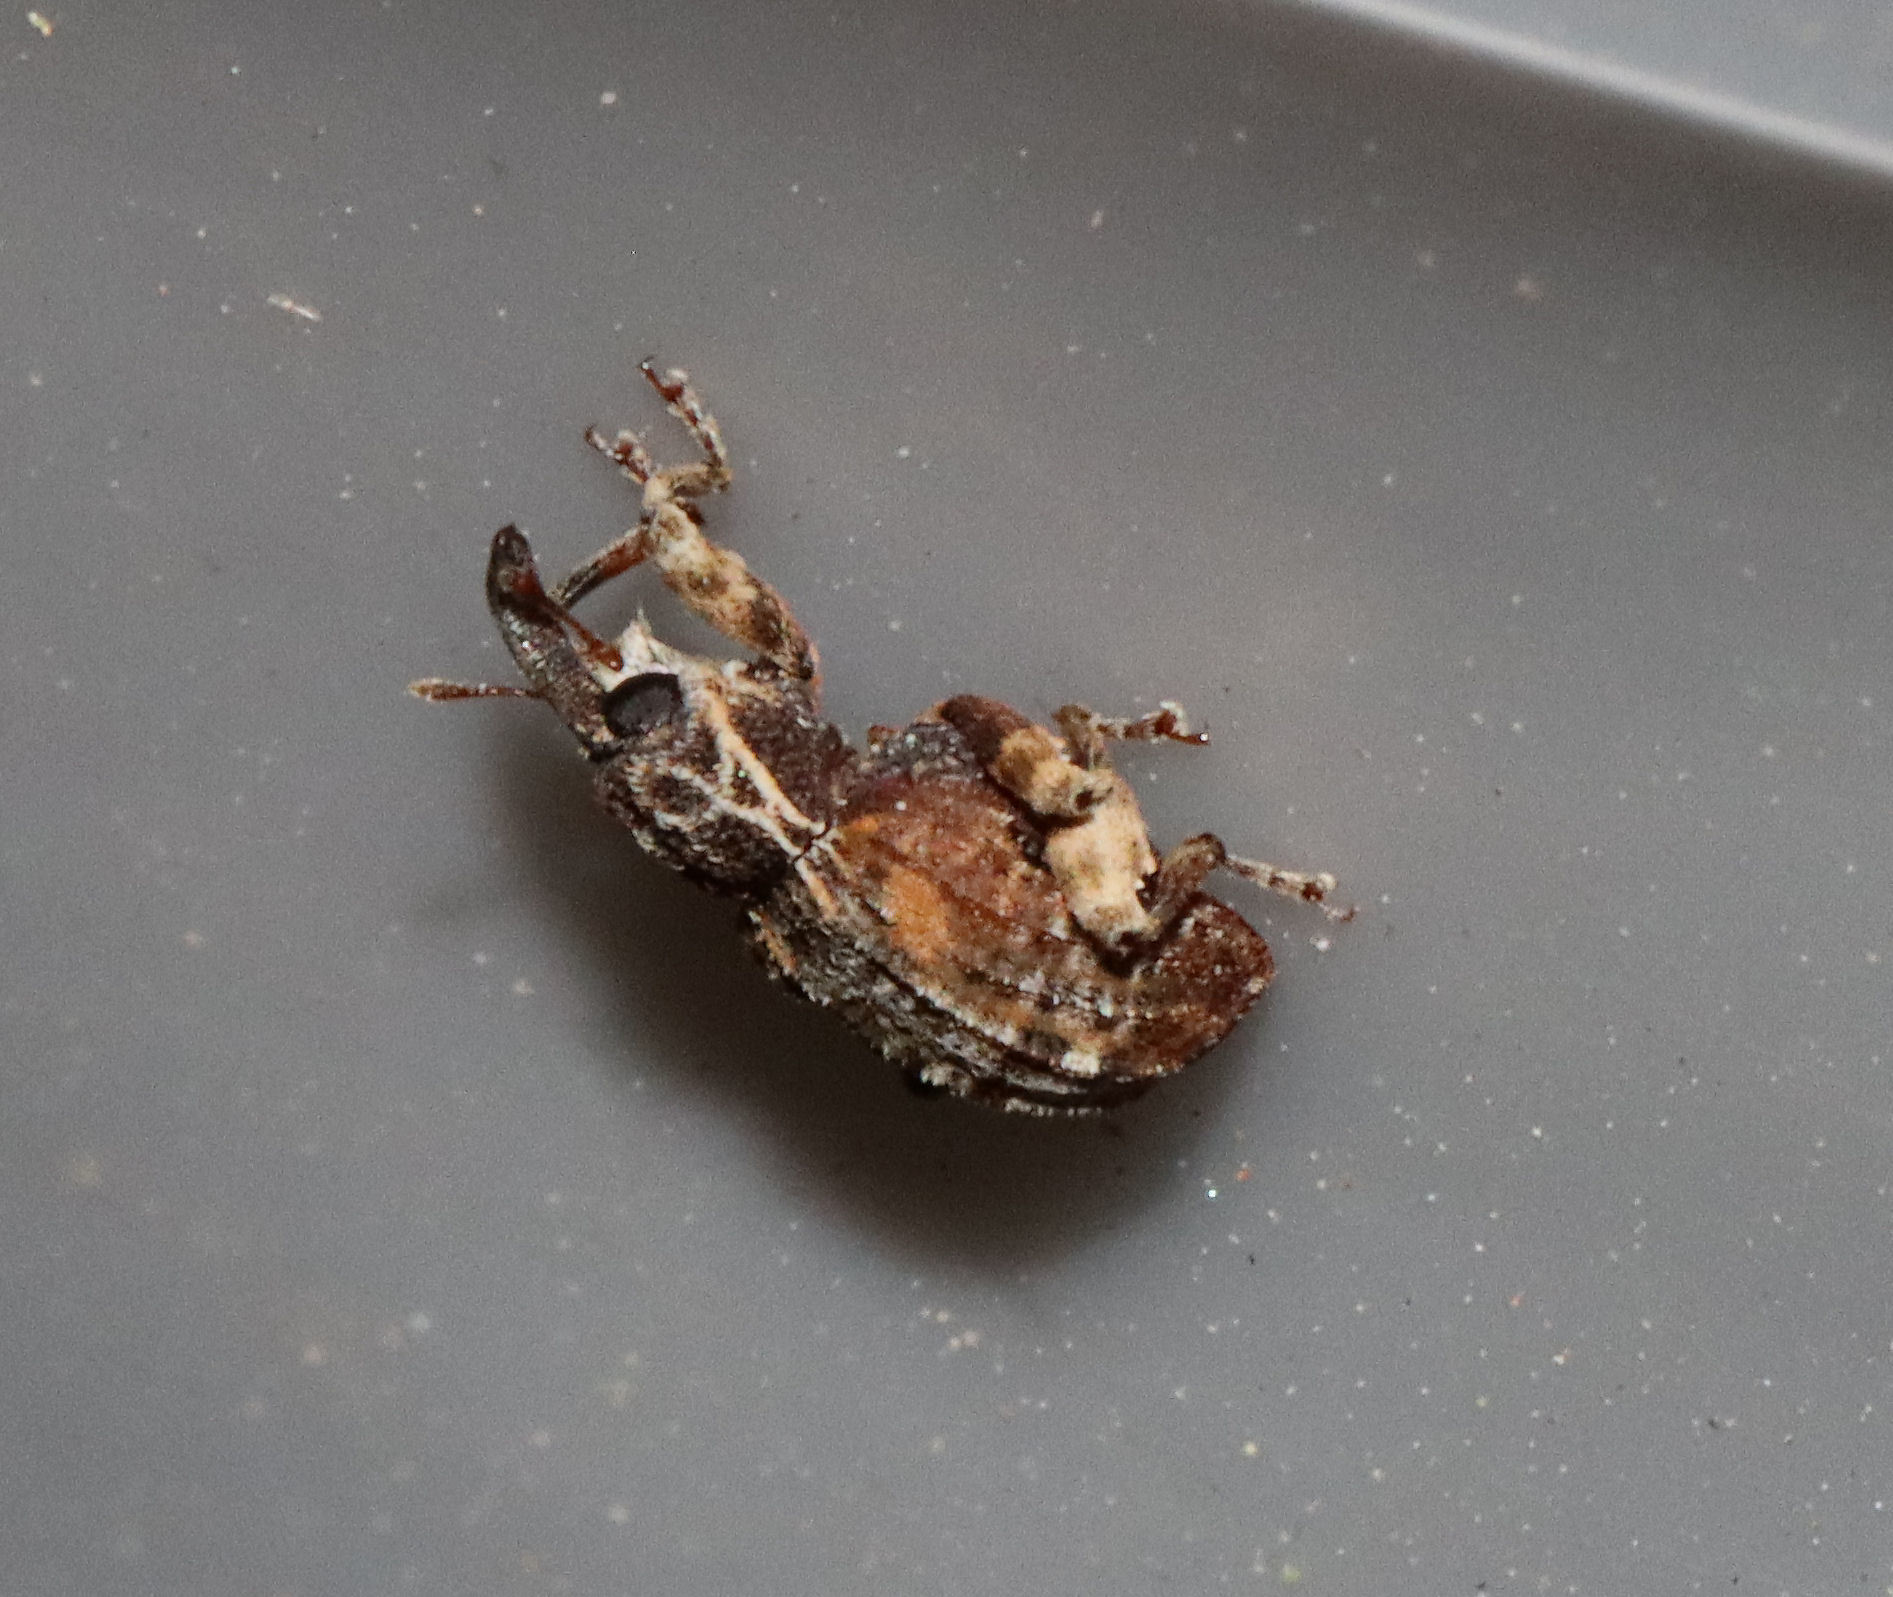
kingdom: Animalia
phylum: Arthropoda
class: Insecta
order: Coleoptera
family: Curculionidae
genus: Conotrachelus
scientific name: Conotrachelus anaglypticus
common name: Cambium curculio
